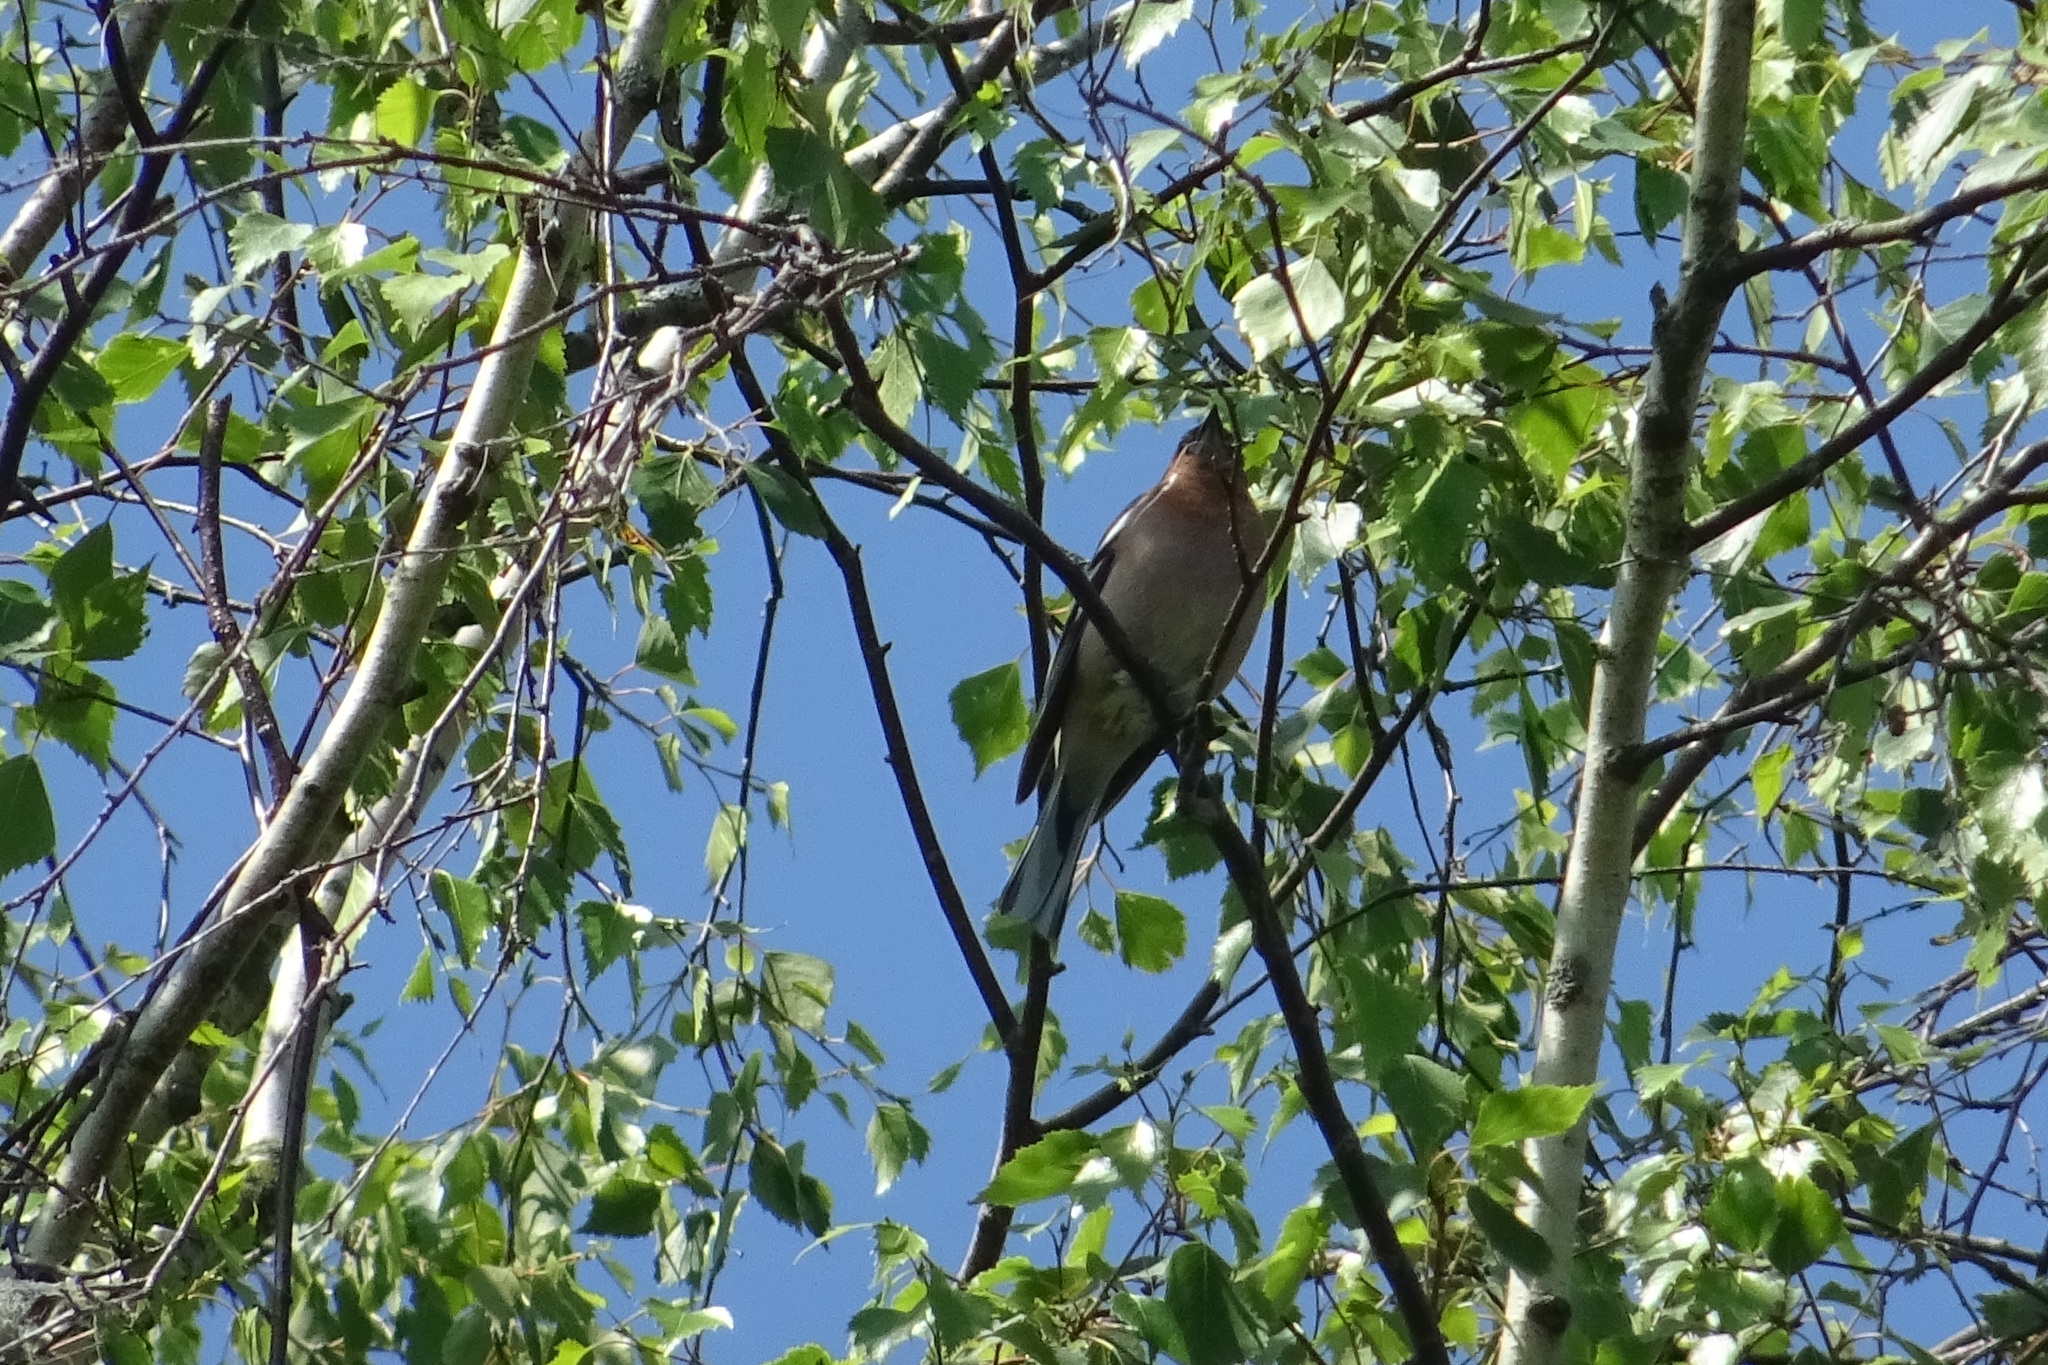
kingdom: Animalia
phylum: Chordata
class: Aves
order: Passeriformes
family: Fringillidae
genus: Fringilla
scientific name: Fringilla coelebs
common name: Common chaffinch
